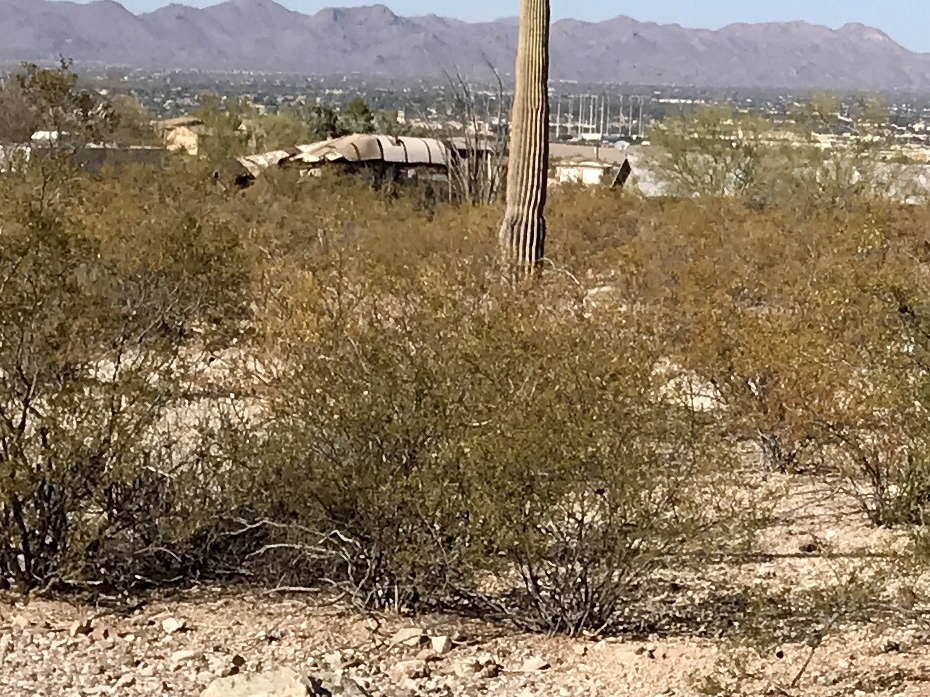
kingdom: Plantae
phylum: Tracheophyta
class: Magnoliopsida
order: Zygophyllales
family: Zygophyllaceae
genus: Larrea
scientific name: Larrea tridentata
